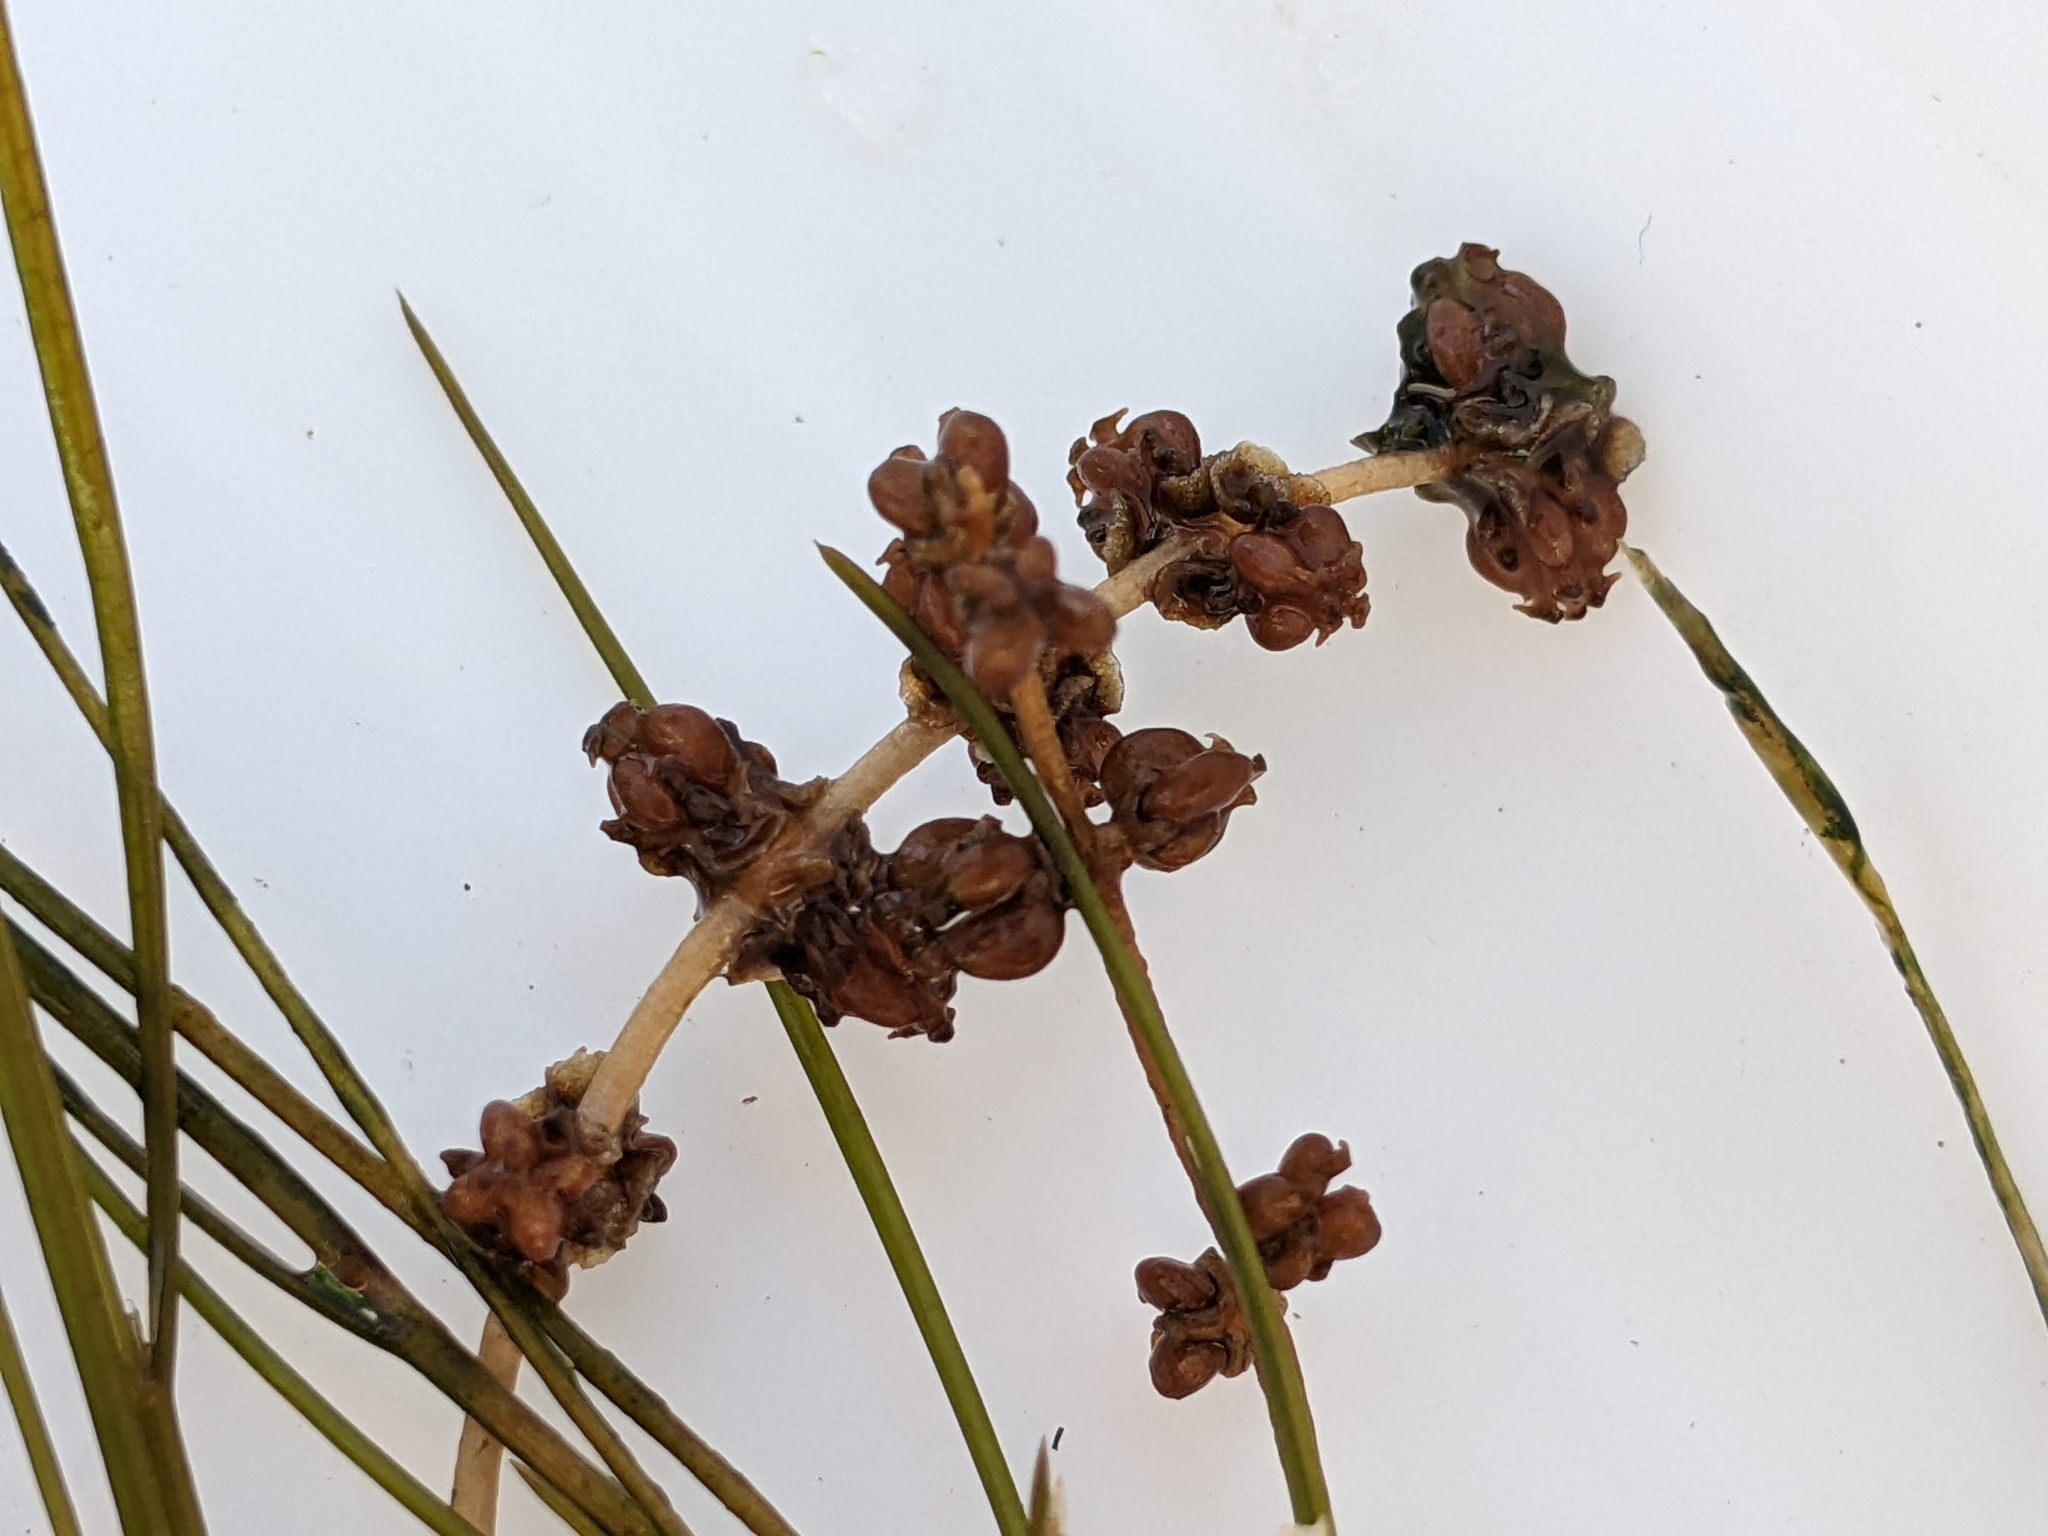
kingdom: Plantae
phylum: Tracheophyta
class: Liliopsida
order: Alismatales
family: Potamogetonaceae
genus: Stuckenia
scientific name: Stuckenia pectinata
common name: Sago pondweed
